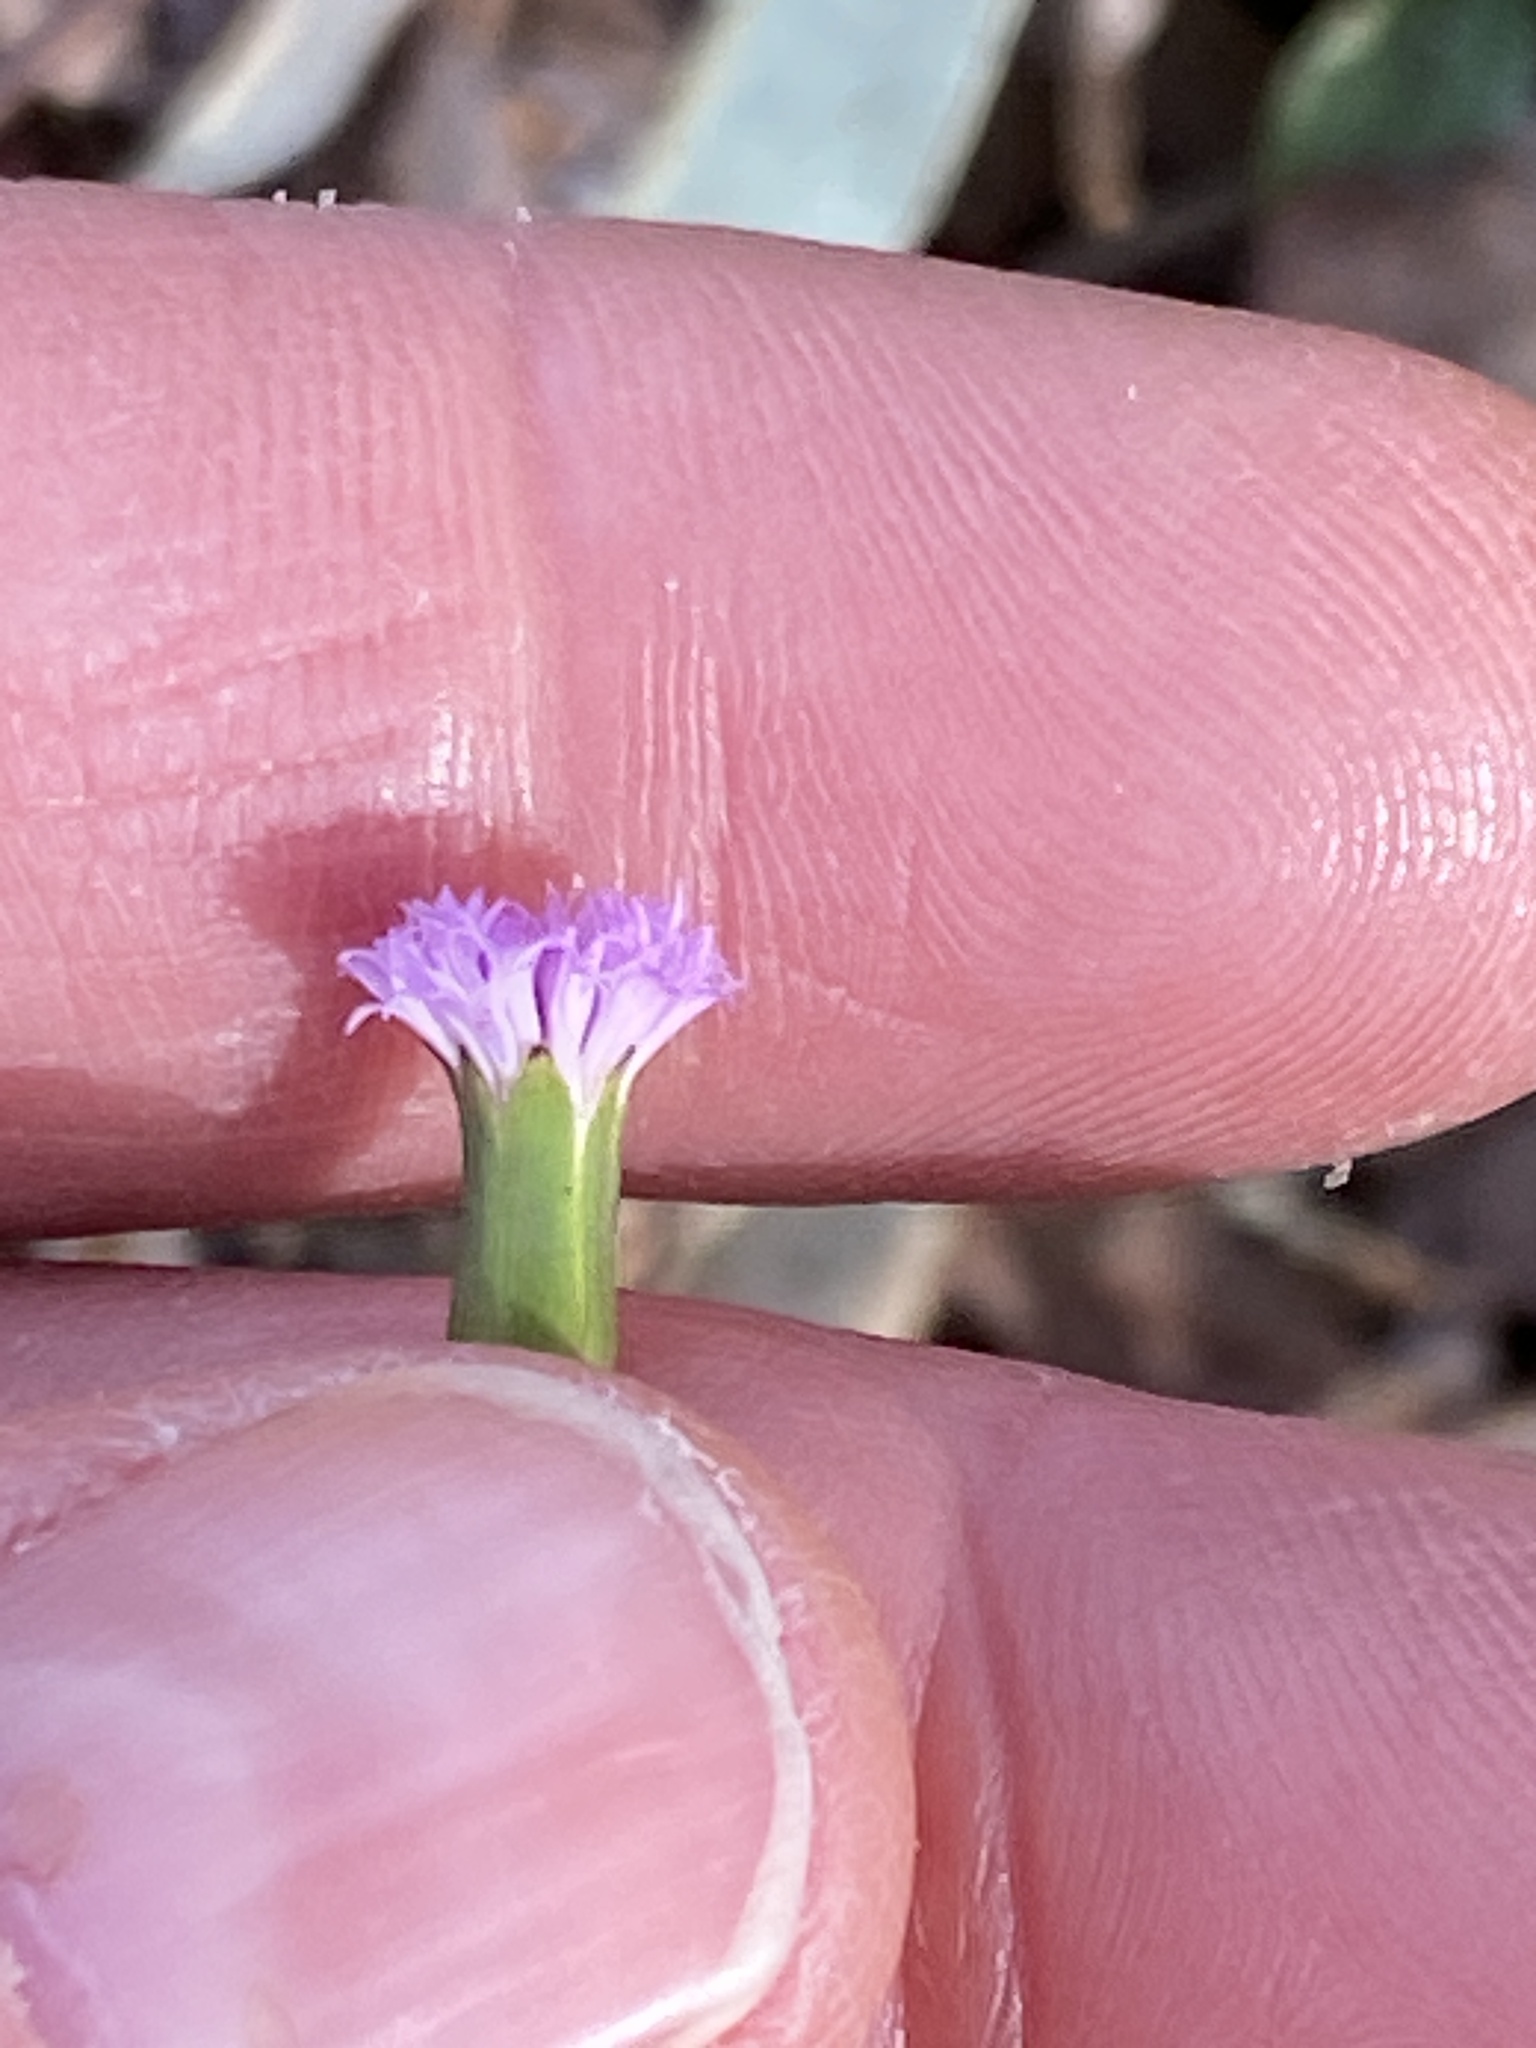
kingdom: Plantae
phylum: Tracheophyta
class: Magnoliopsida
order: Asterales
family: Asteraceae
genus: Emilia
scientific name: Emilia javanica
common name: Tassel-flower
